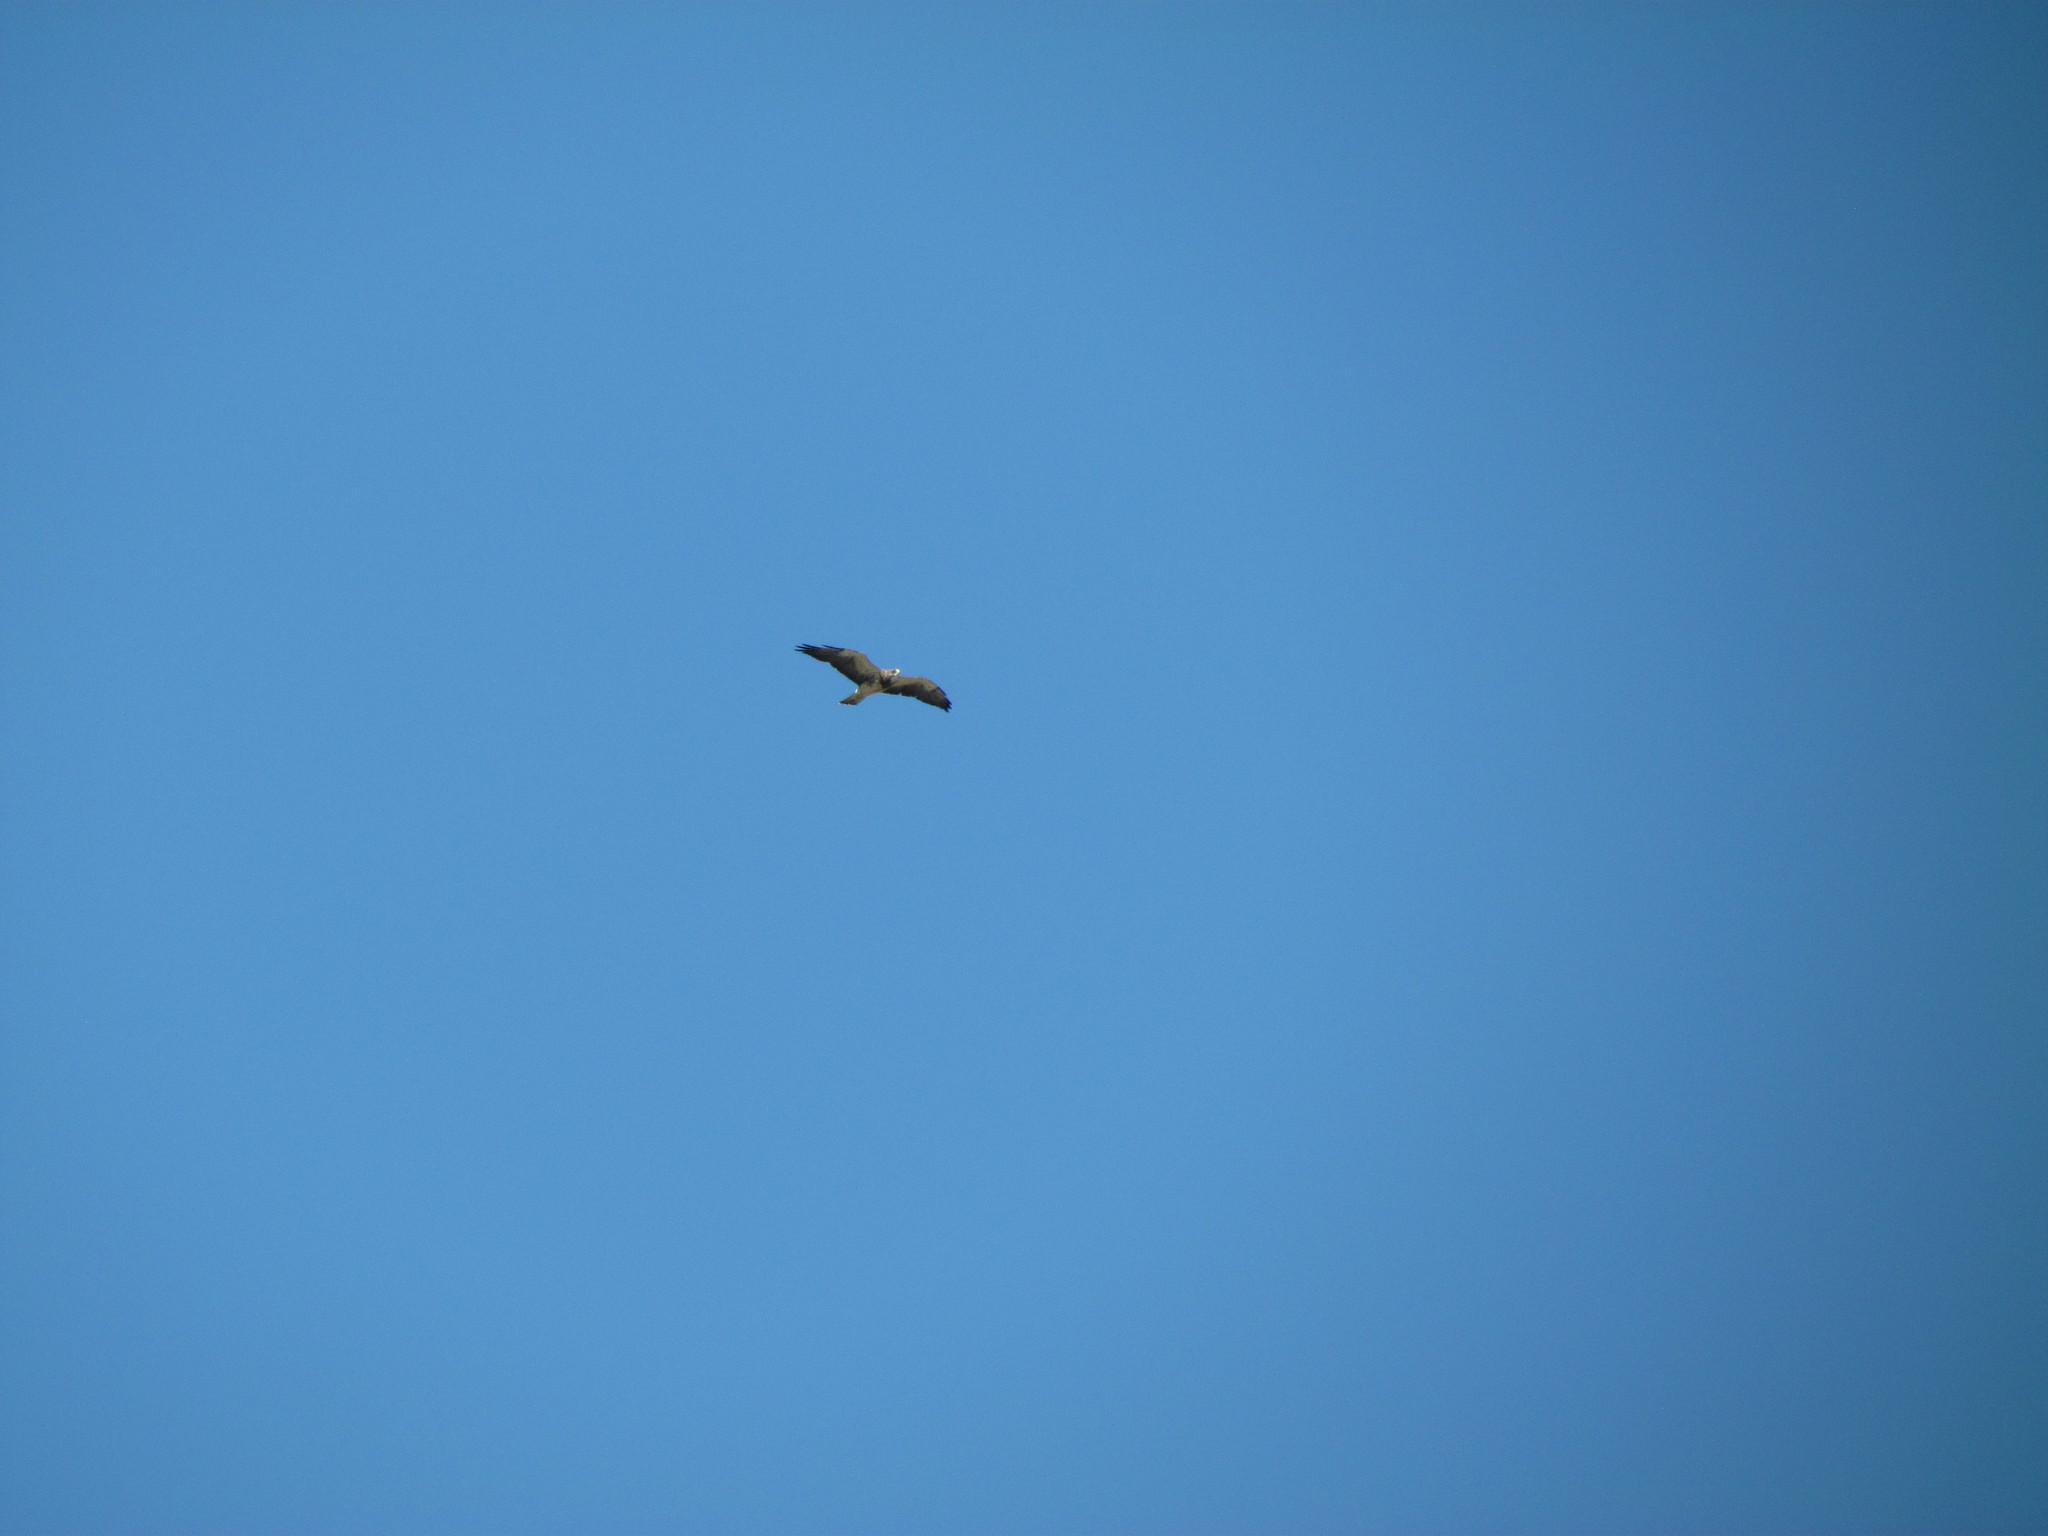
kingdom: Animalia
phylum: Chordata
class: Aves
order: Accipitriformes
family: Accipitridae
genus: Buteo
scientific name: Buteo swainsoni
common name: Swainson's hawk
